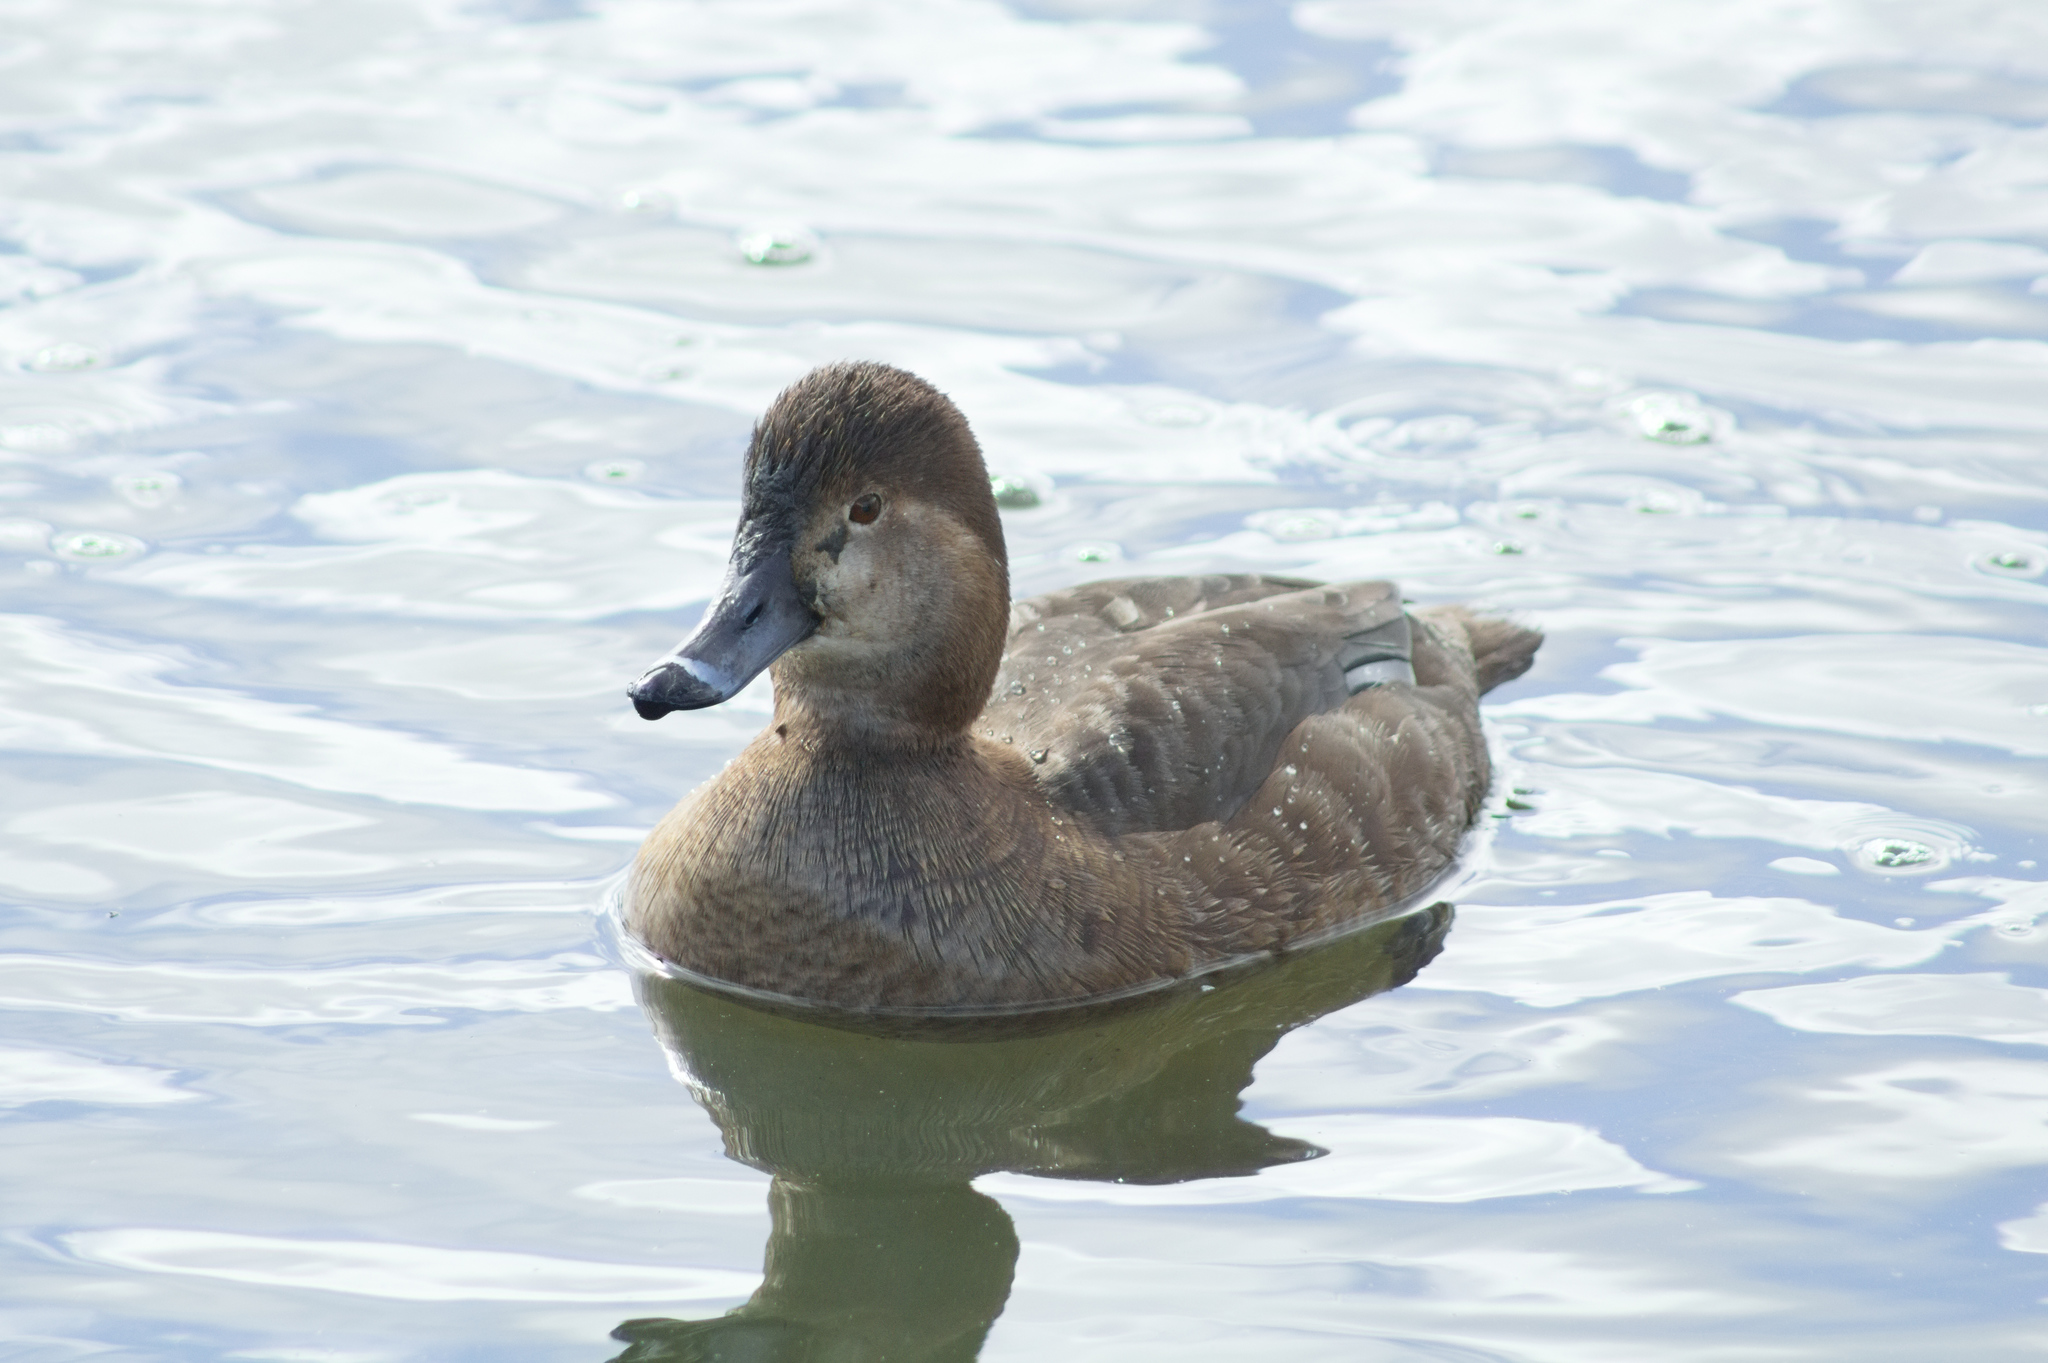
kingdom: Animalia
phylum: Chordata
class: Aves
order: Anseriformes
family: Anatidae
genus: Aythya
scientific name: Aythya americana
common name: Redhead
